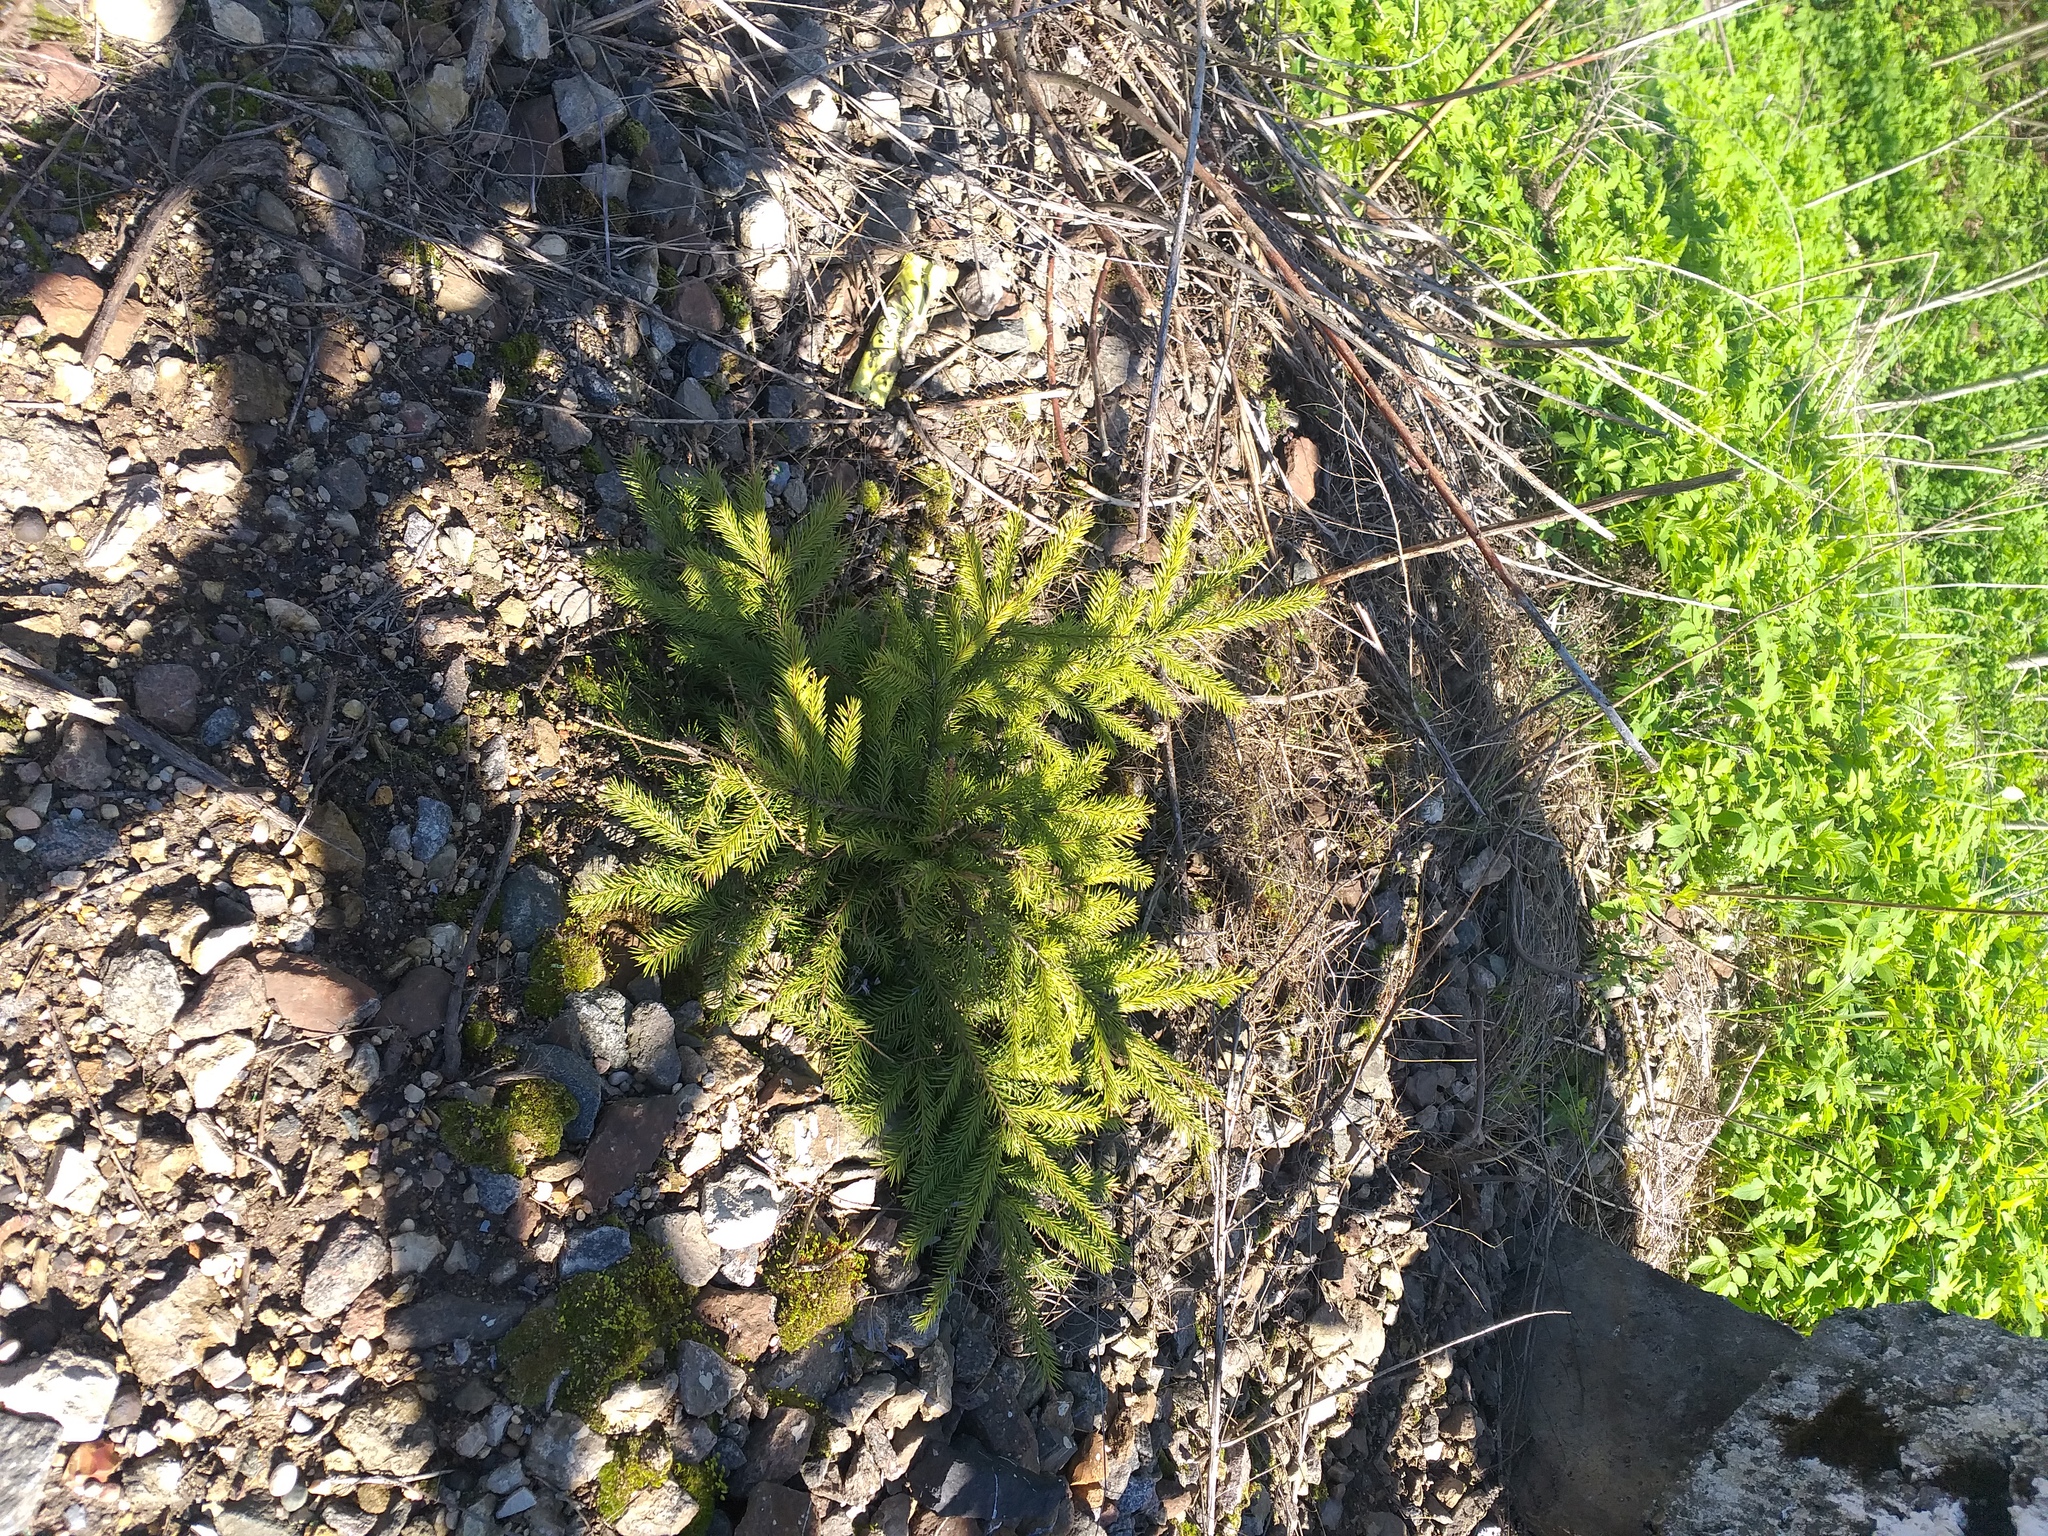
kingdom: Plantae
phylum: Tracheophyta
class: Pinopsida
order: Pinales
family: Pinaceae
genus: Picea
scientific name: Picea abies
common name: Norway spruce
